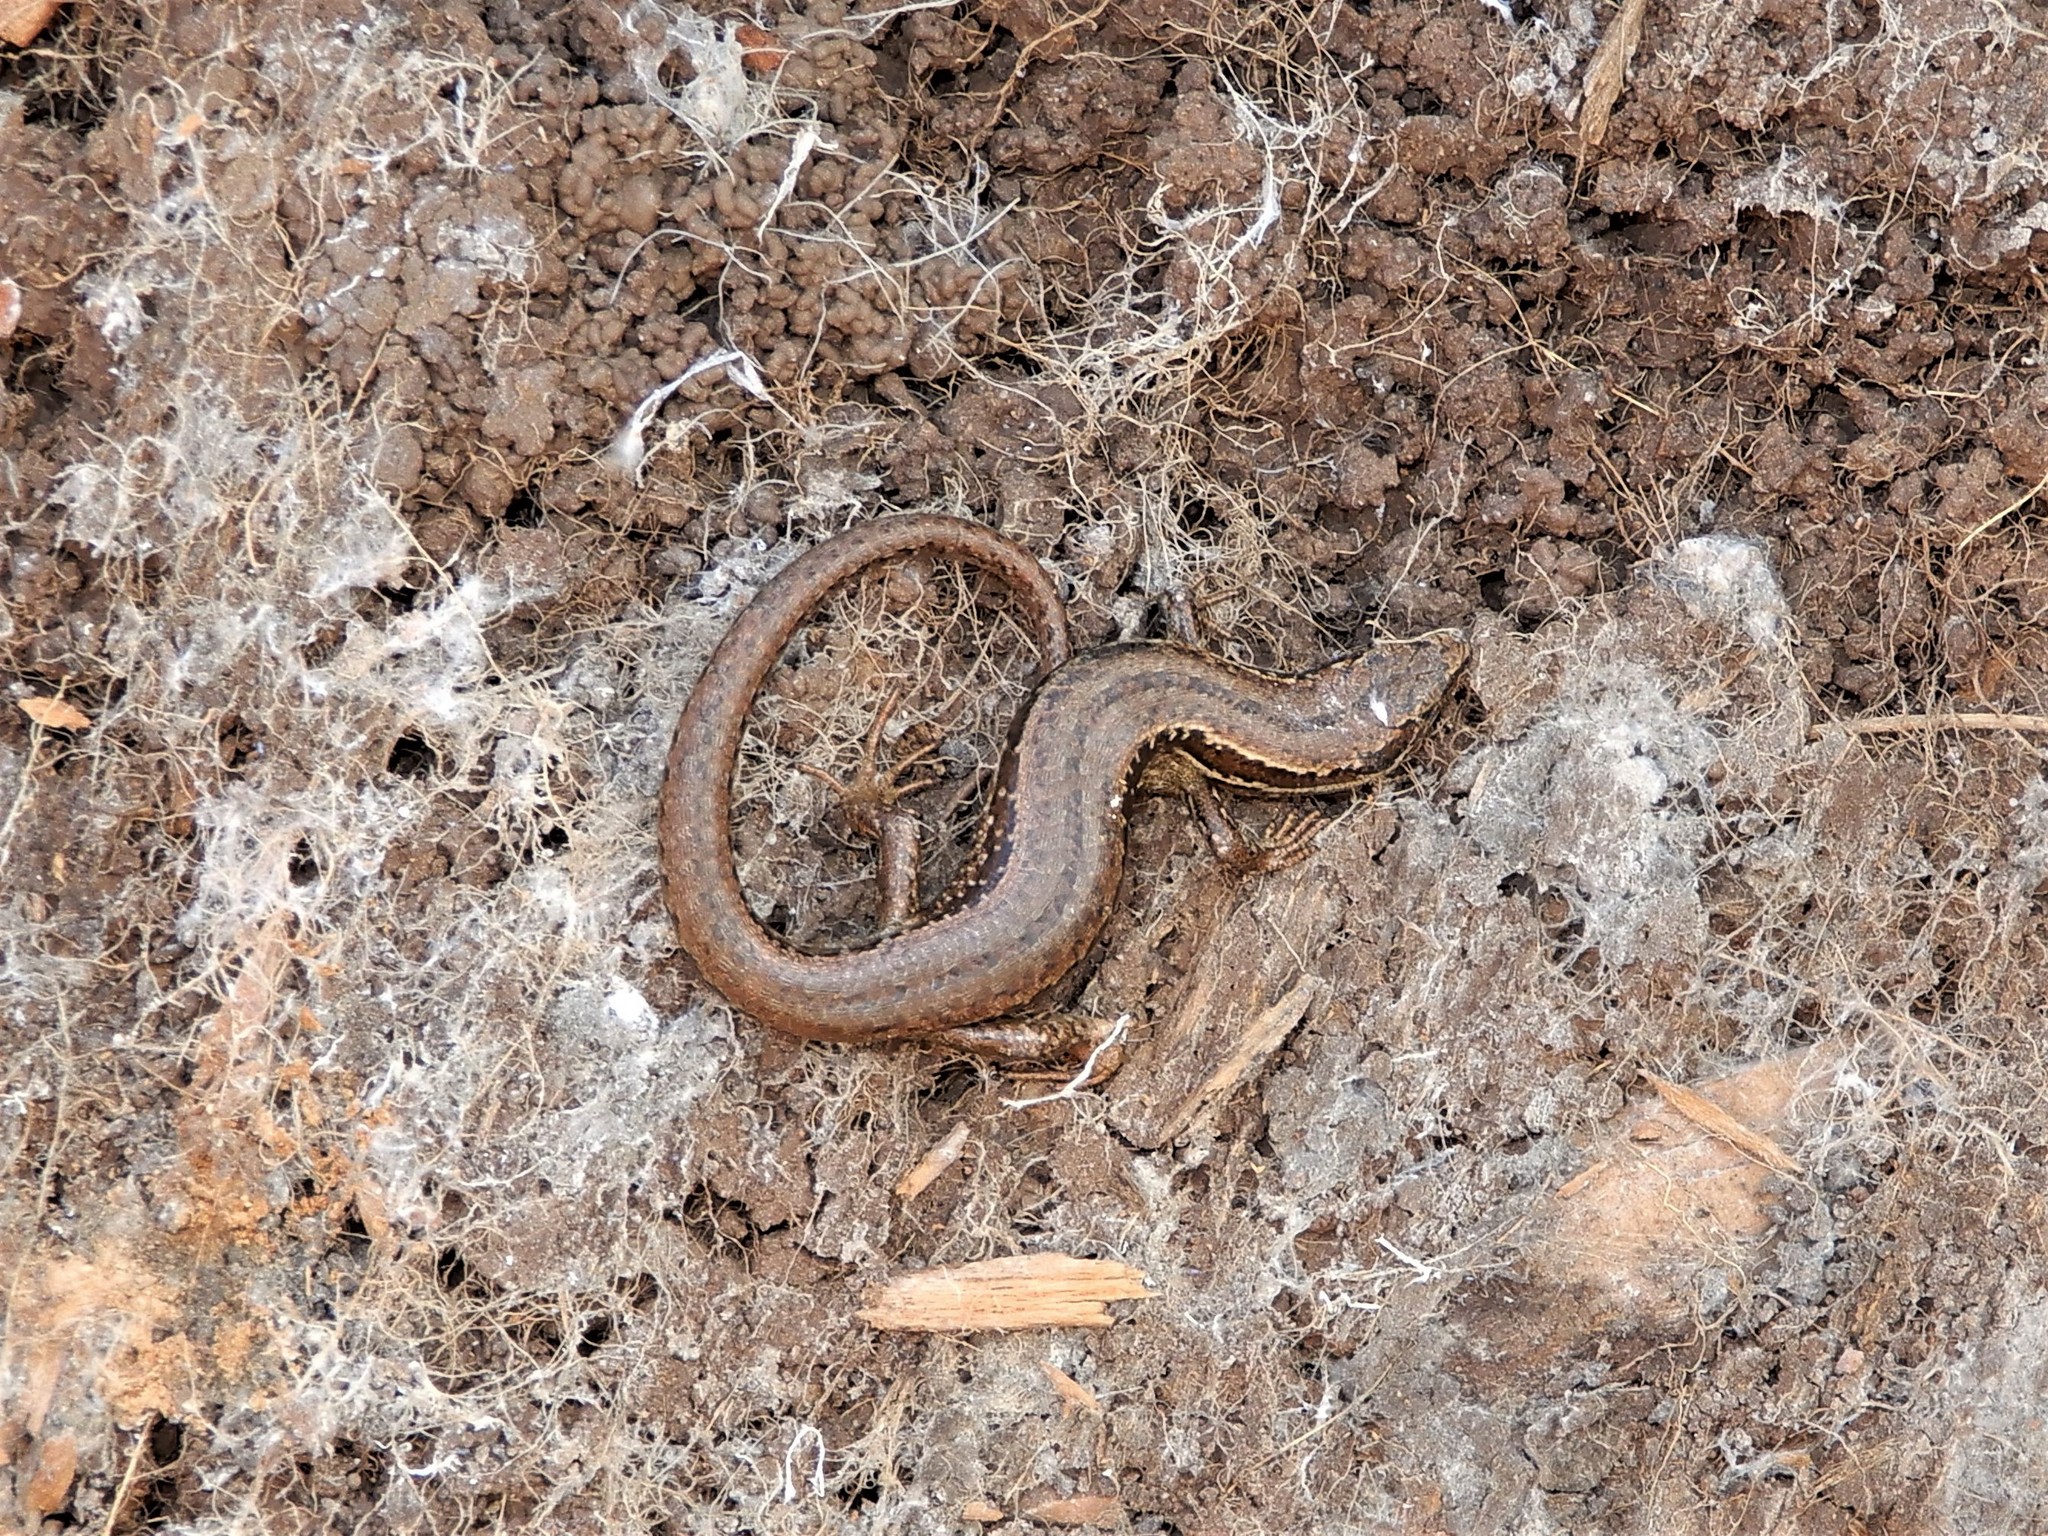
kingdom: Animalia
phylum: Chordata
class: Squamata
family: Scincidae
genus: Oligosoma
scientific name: Oligosoma polychroma
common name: Common new zealand skink
